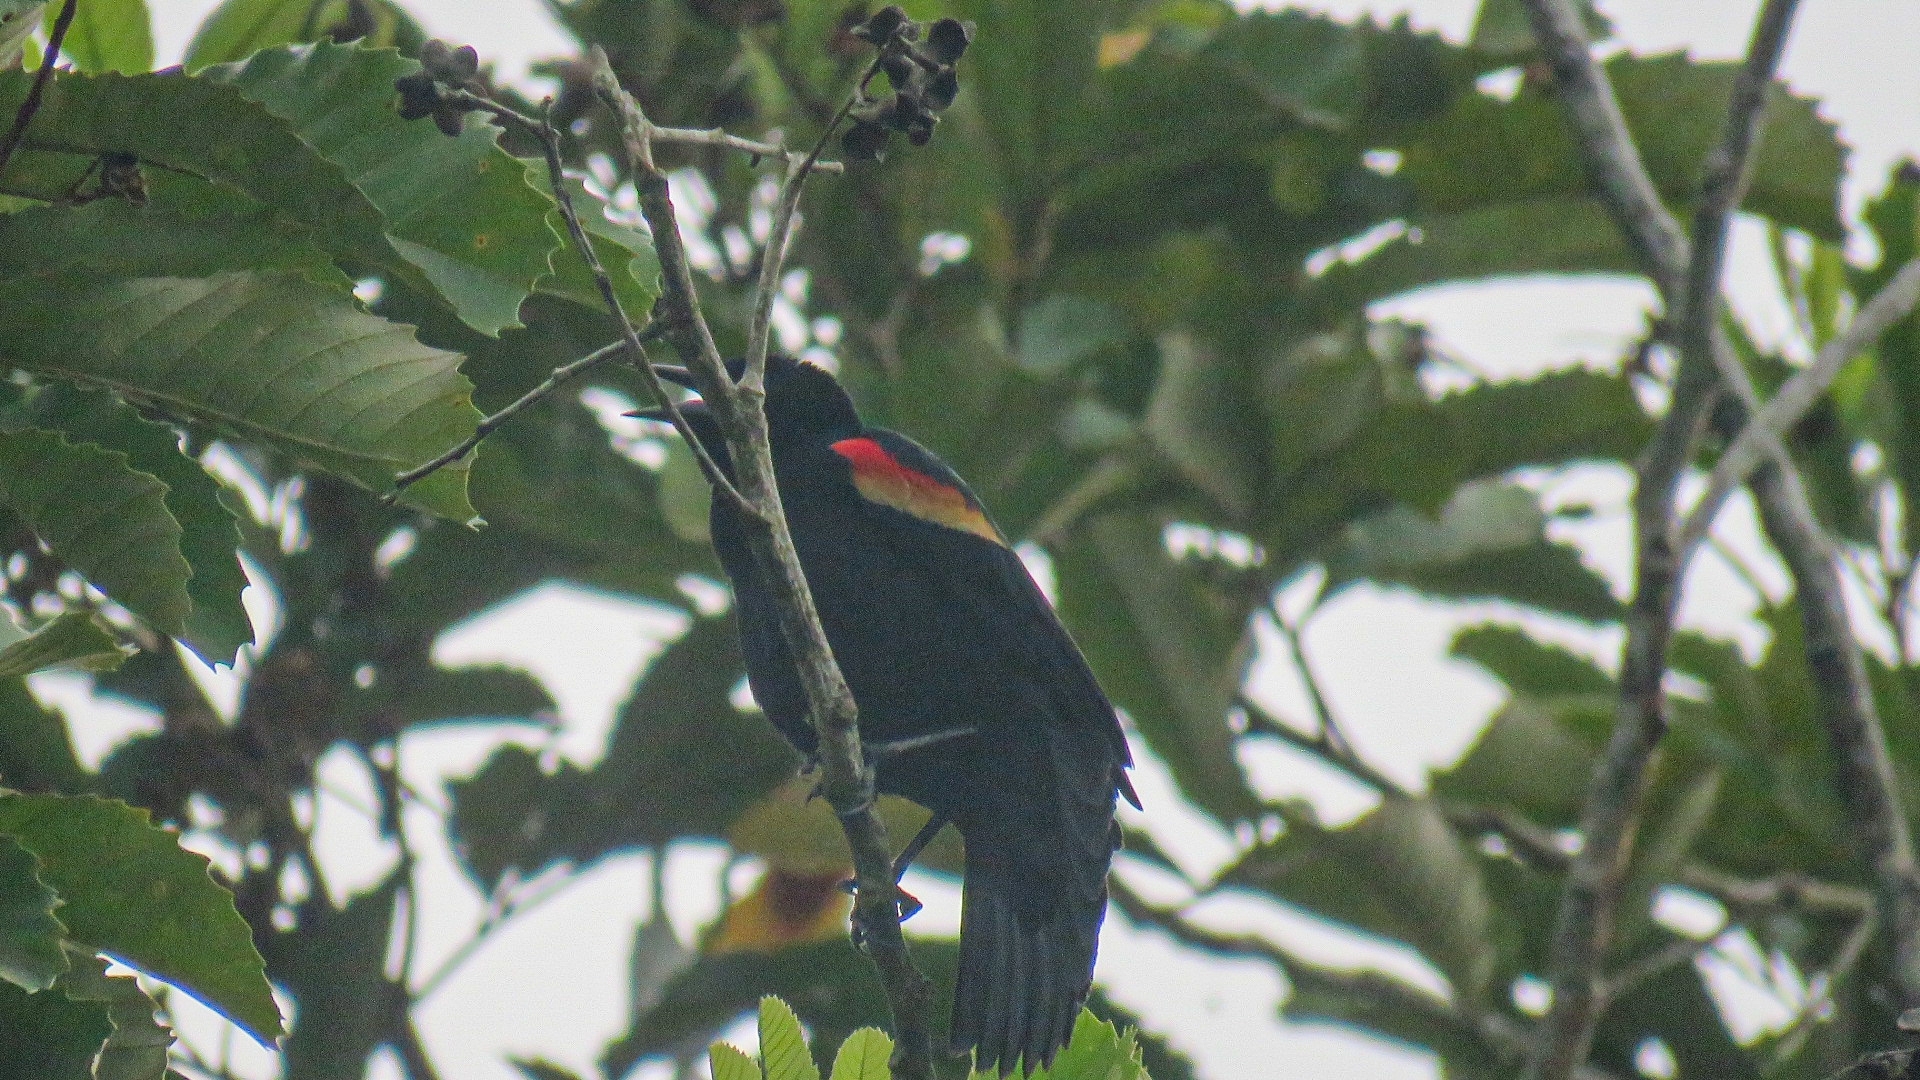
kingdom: Animalia
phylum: Chordata
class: Aves
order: Passeriformes
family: Icteridae
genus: Agelaius
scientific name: Agelaius phoeniceus
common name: Red-winged blackbird
